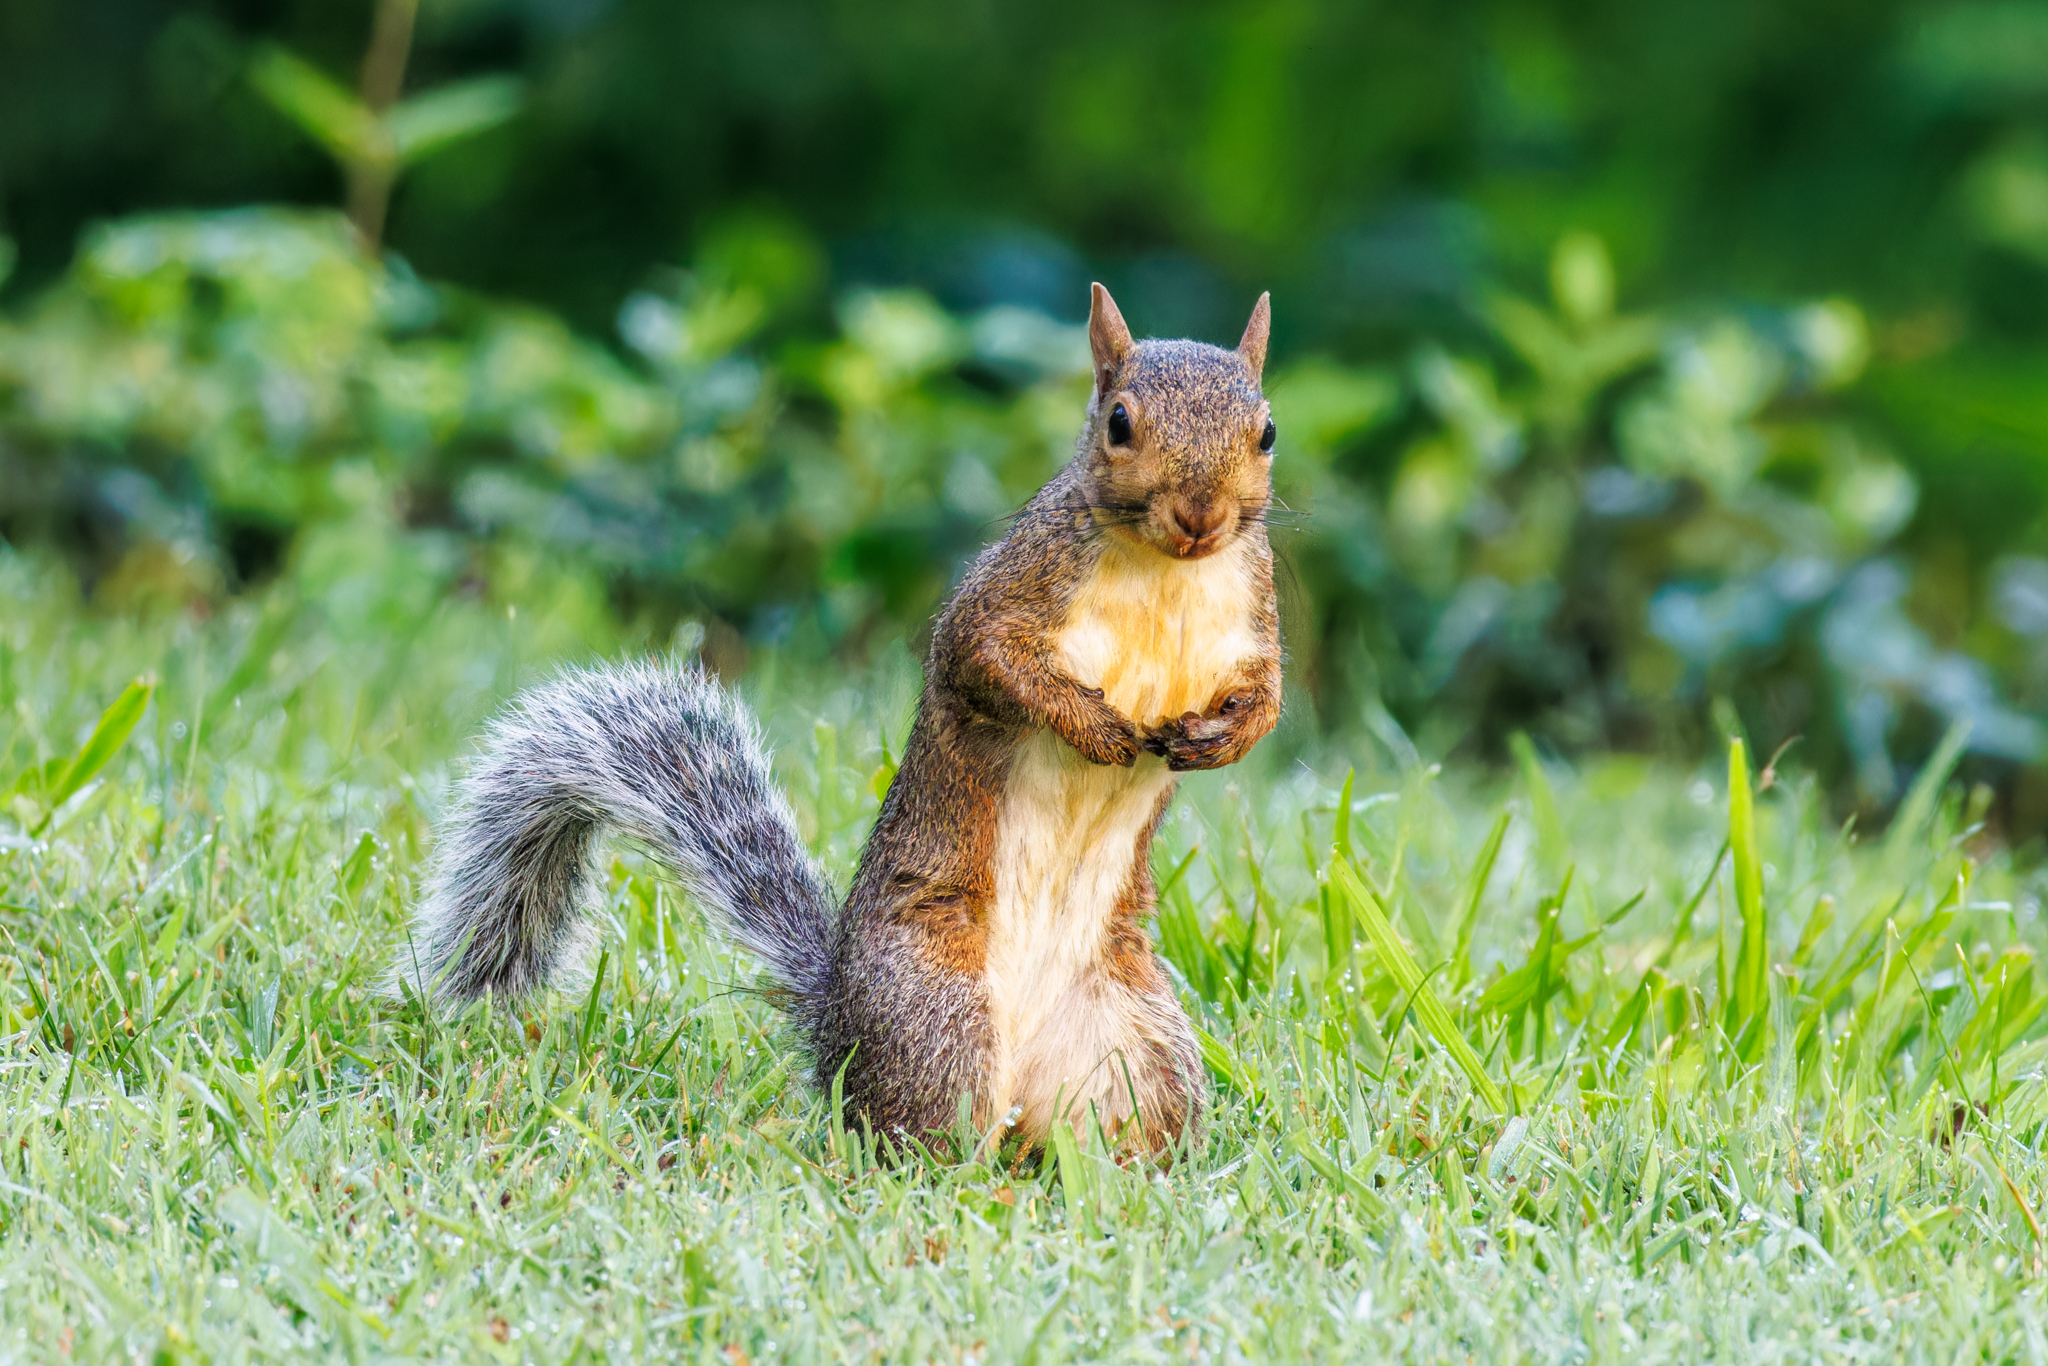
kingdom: Animalia
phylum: Chordata
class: Mammalia
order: Rodentia
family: Sciuridae
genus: Sciurus
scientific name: Sciurus carolinensis
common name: Eastern gray squirrel
